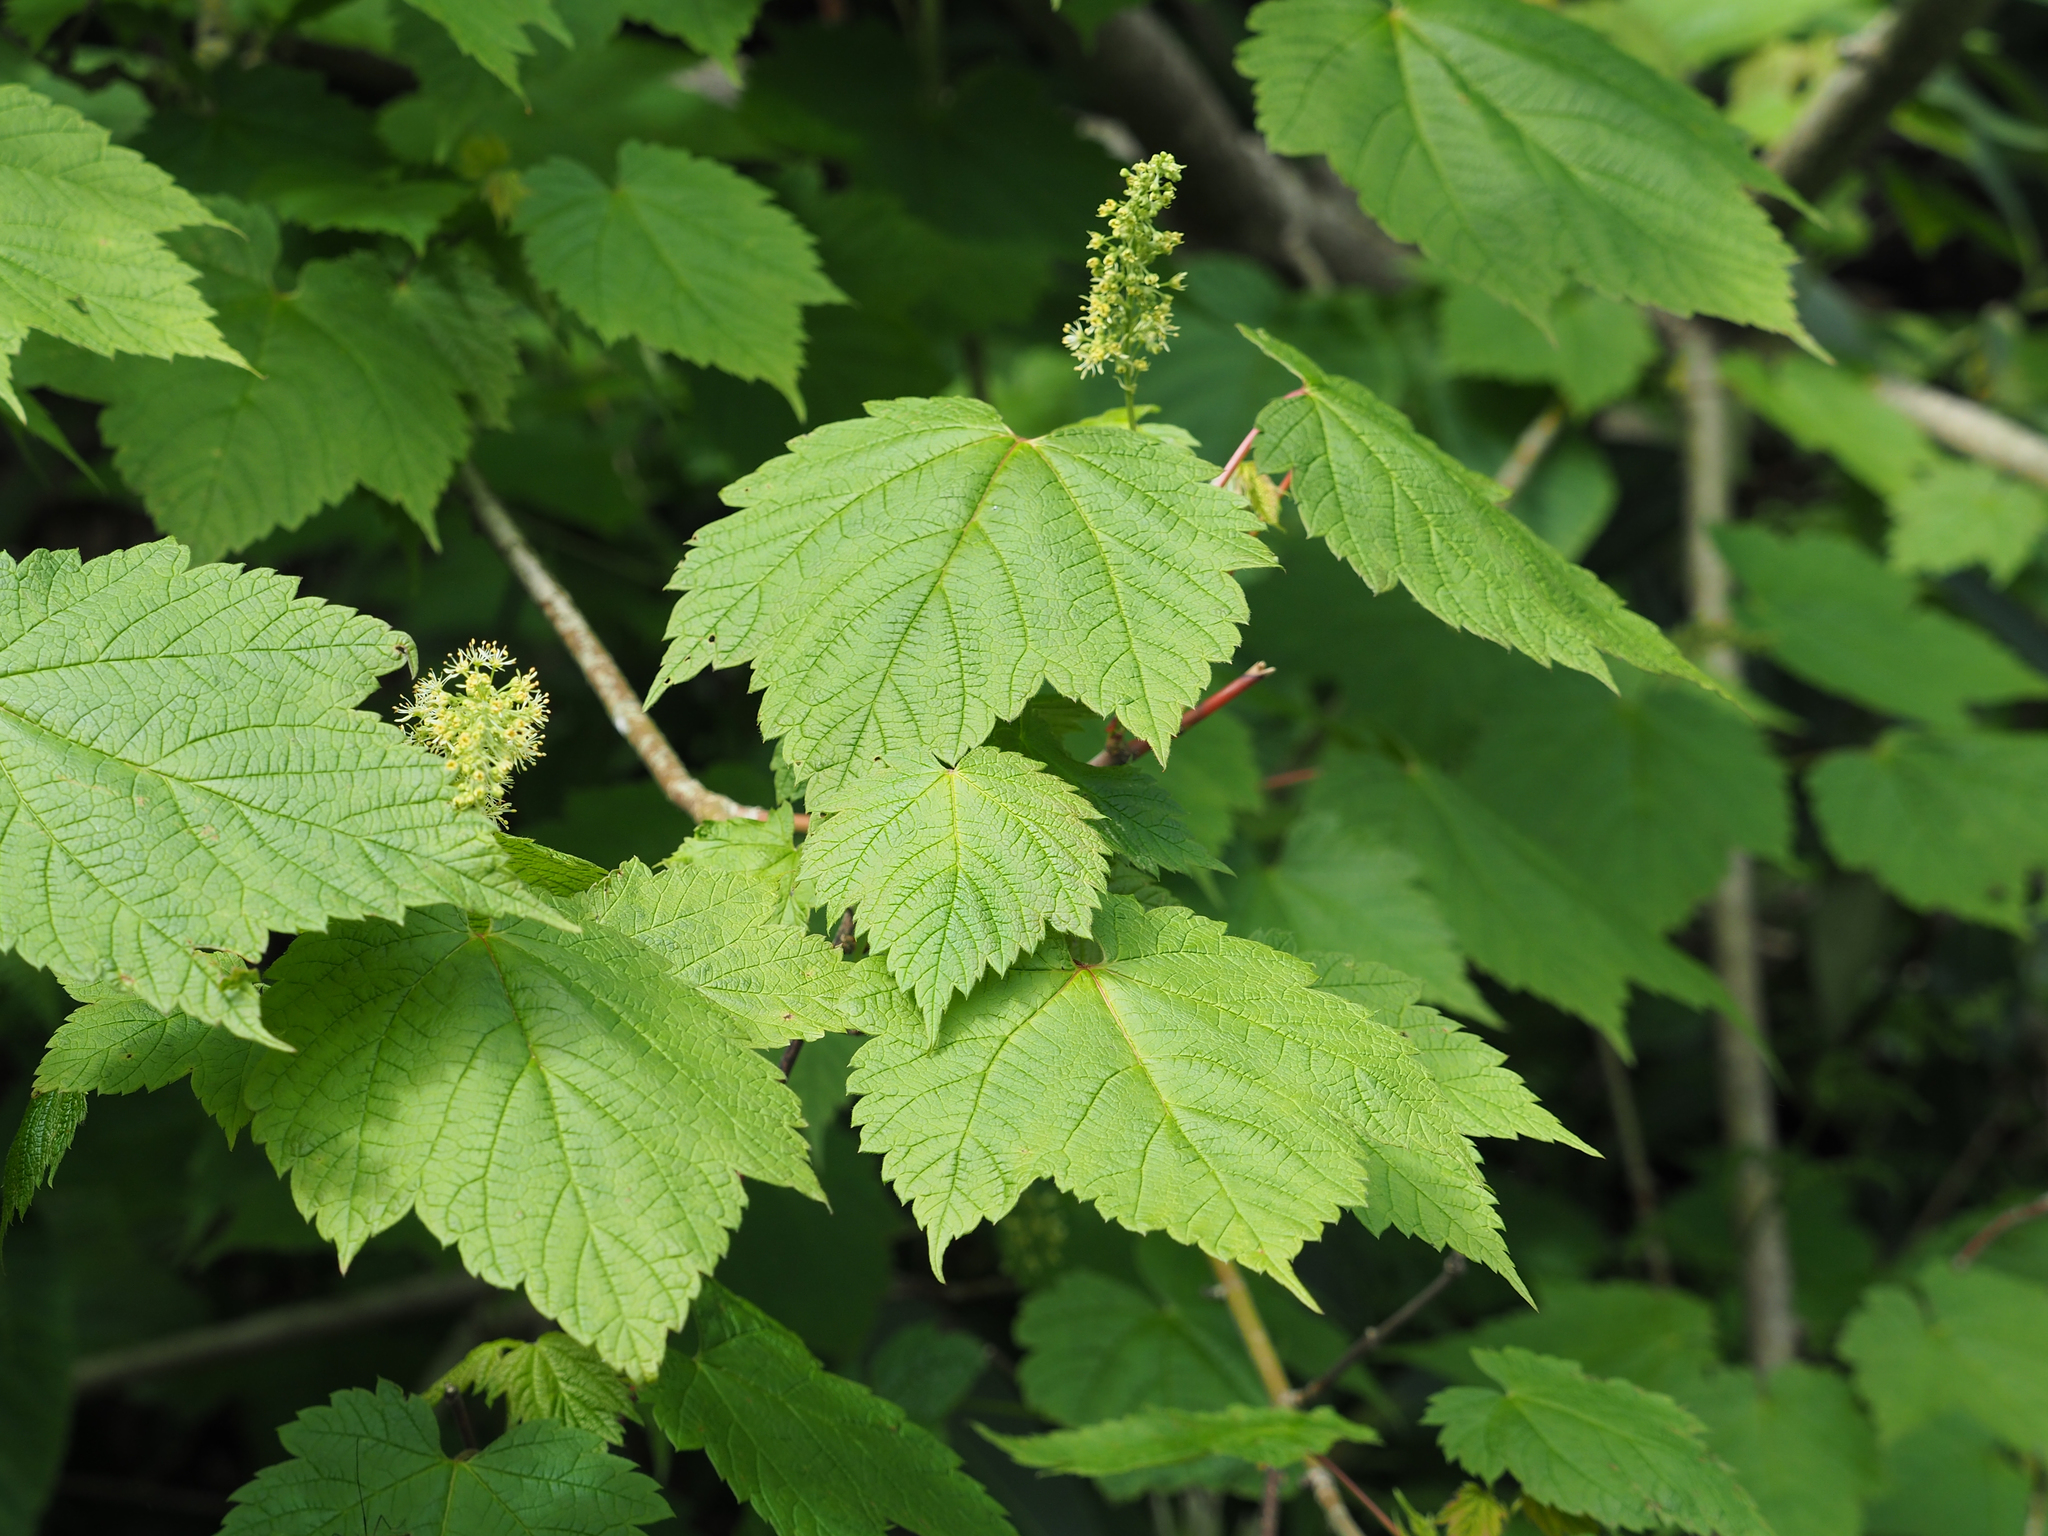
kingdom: Plantae
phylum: Tracheophyta
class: Magnoliopsida
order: Sapindales
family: Sapindaceae
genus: Acer
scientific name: Acer spicatum
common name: Mountain maple
